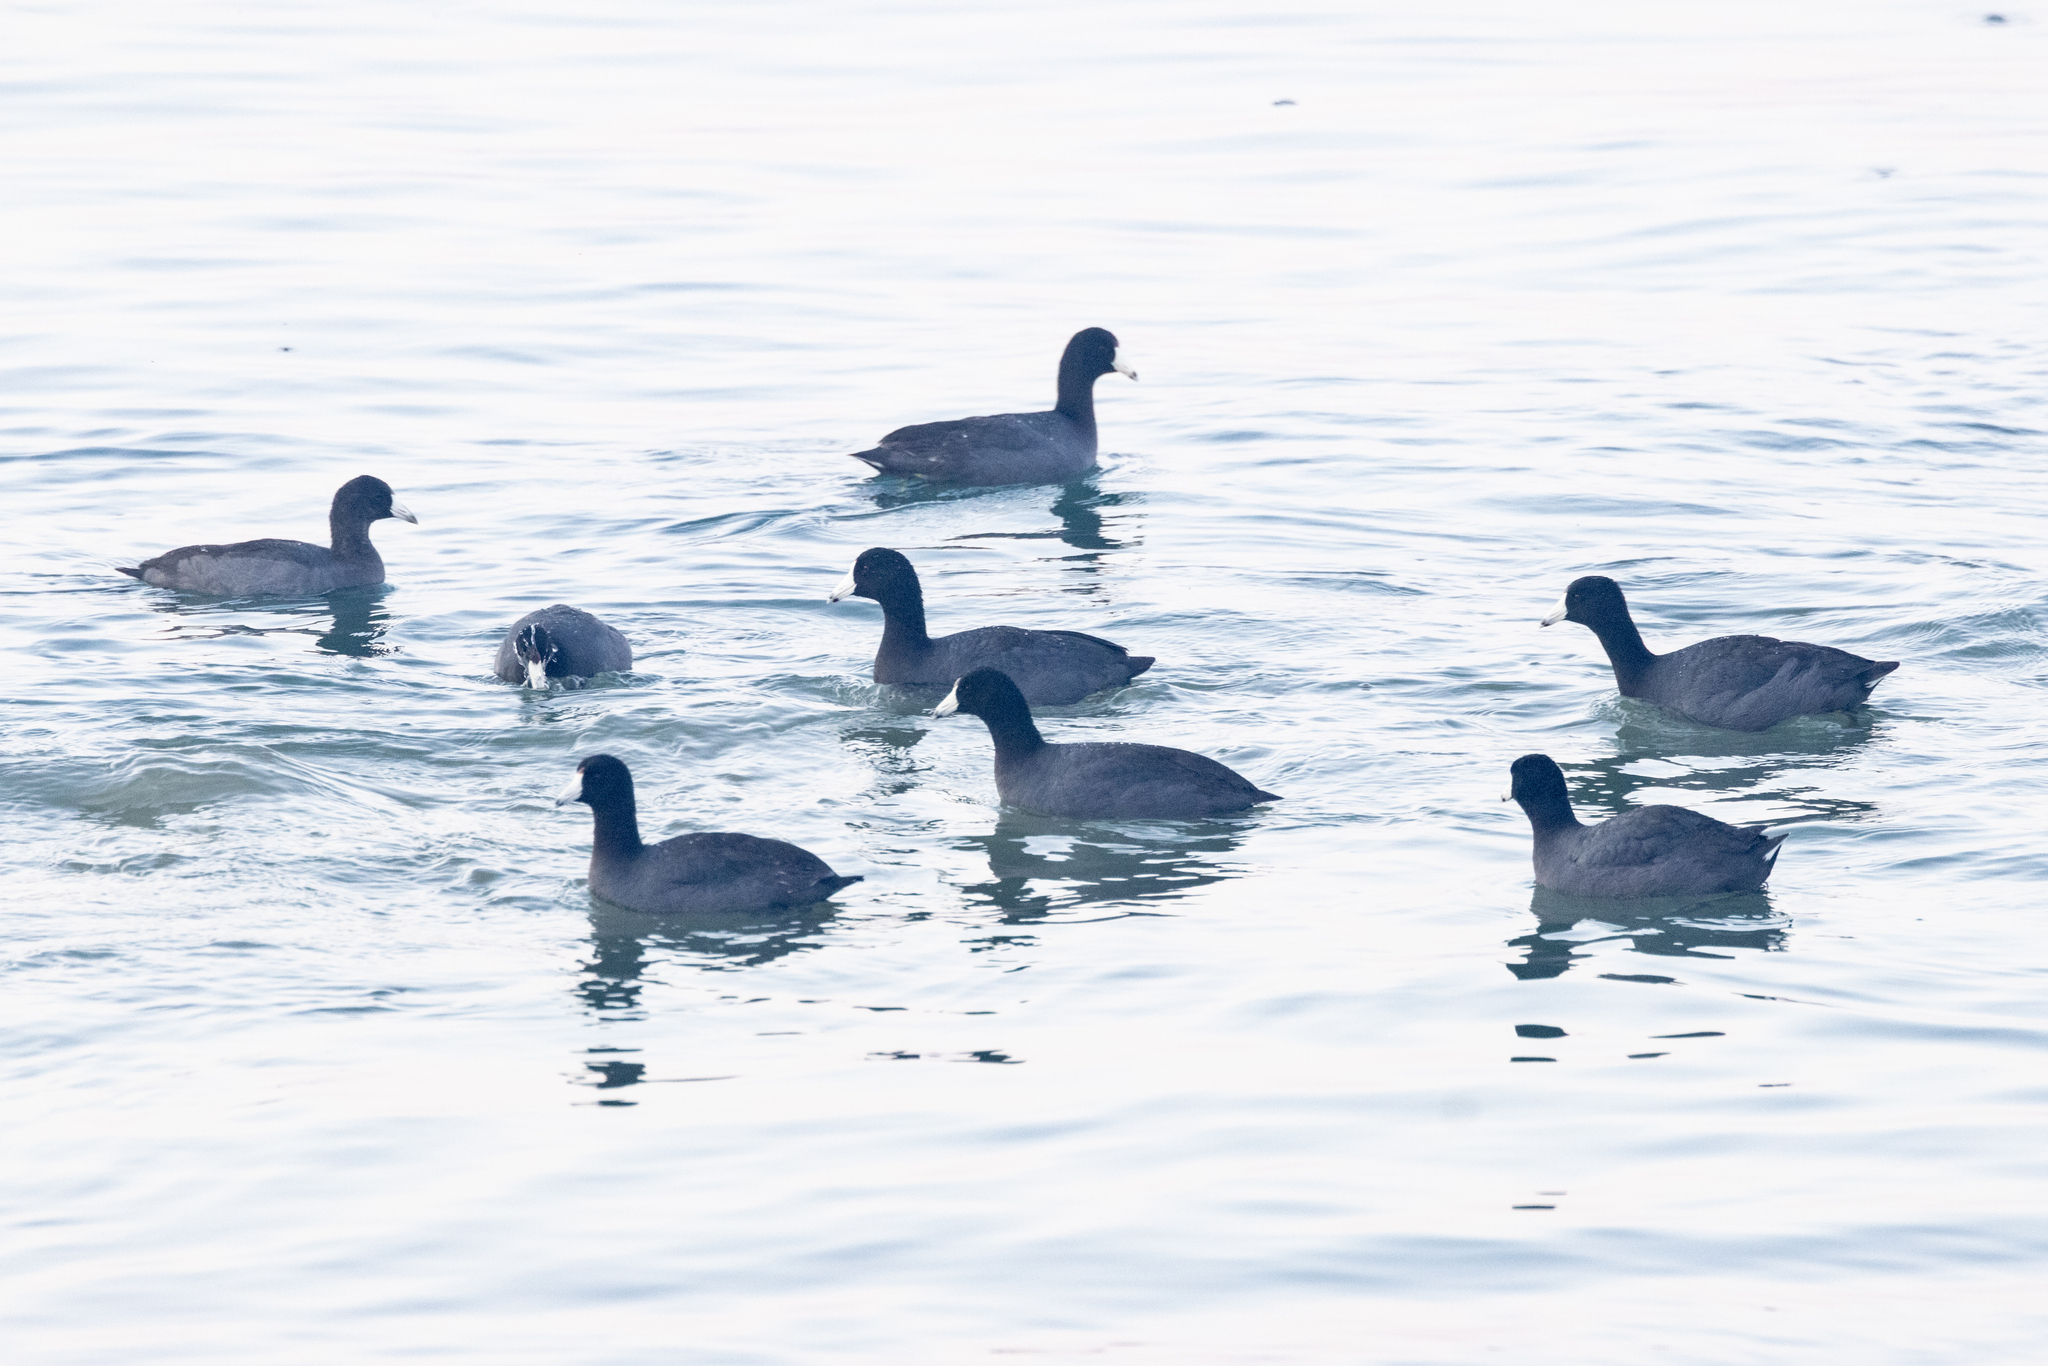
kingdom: Animalia
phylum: Chordata
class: Aves
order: Gruiformes
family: Rallidae
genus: Fulica
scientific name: Fulica americana
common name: American coot
